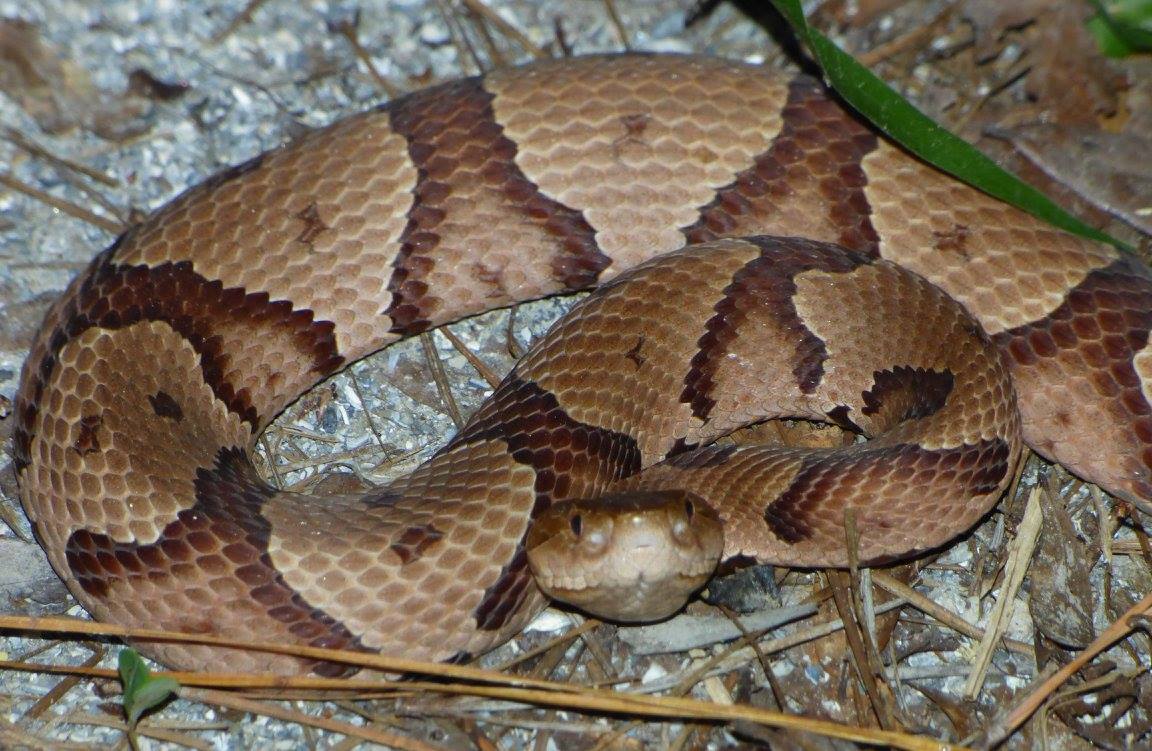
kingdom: Animalia
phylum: Chordata
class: Squamata
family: Viperidae
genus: Agkistrodon
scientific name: Agkistrodon contortrix
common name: Northern copperhead
